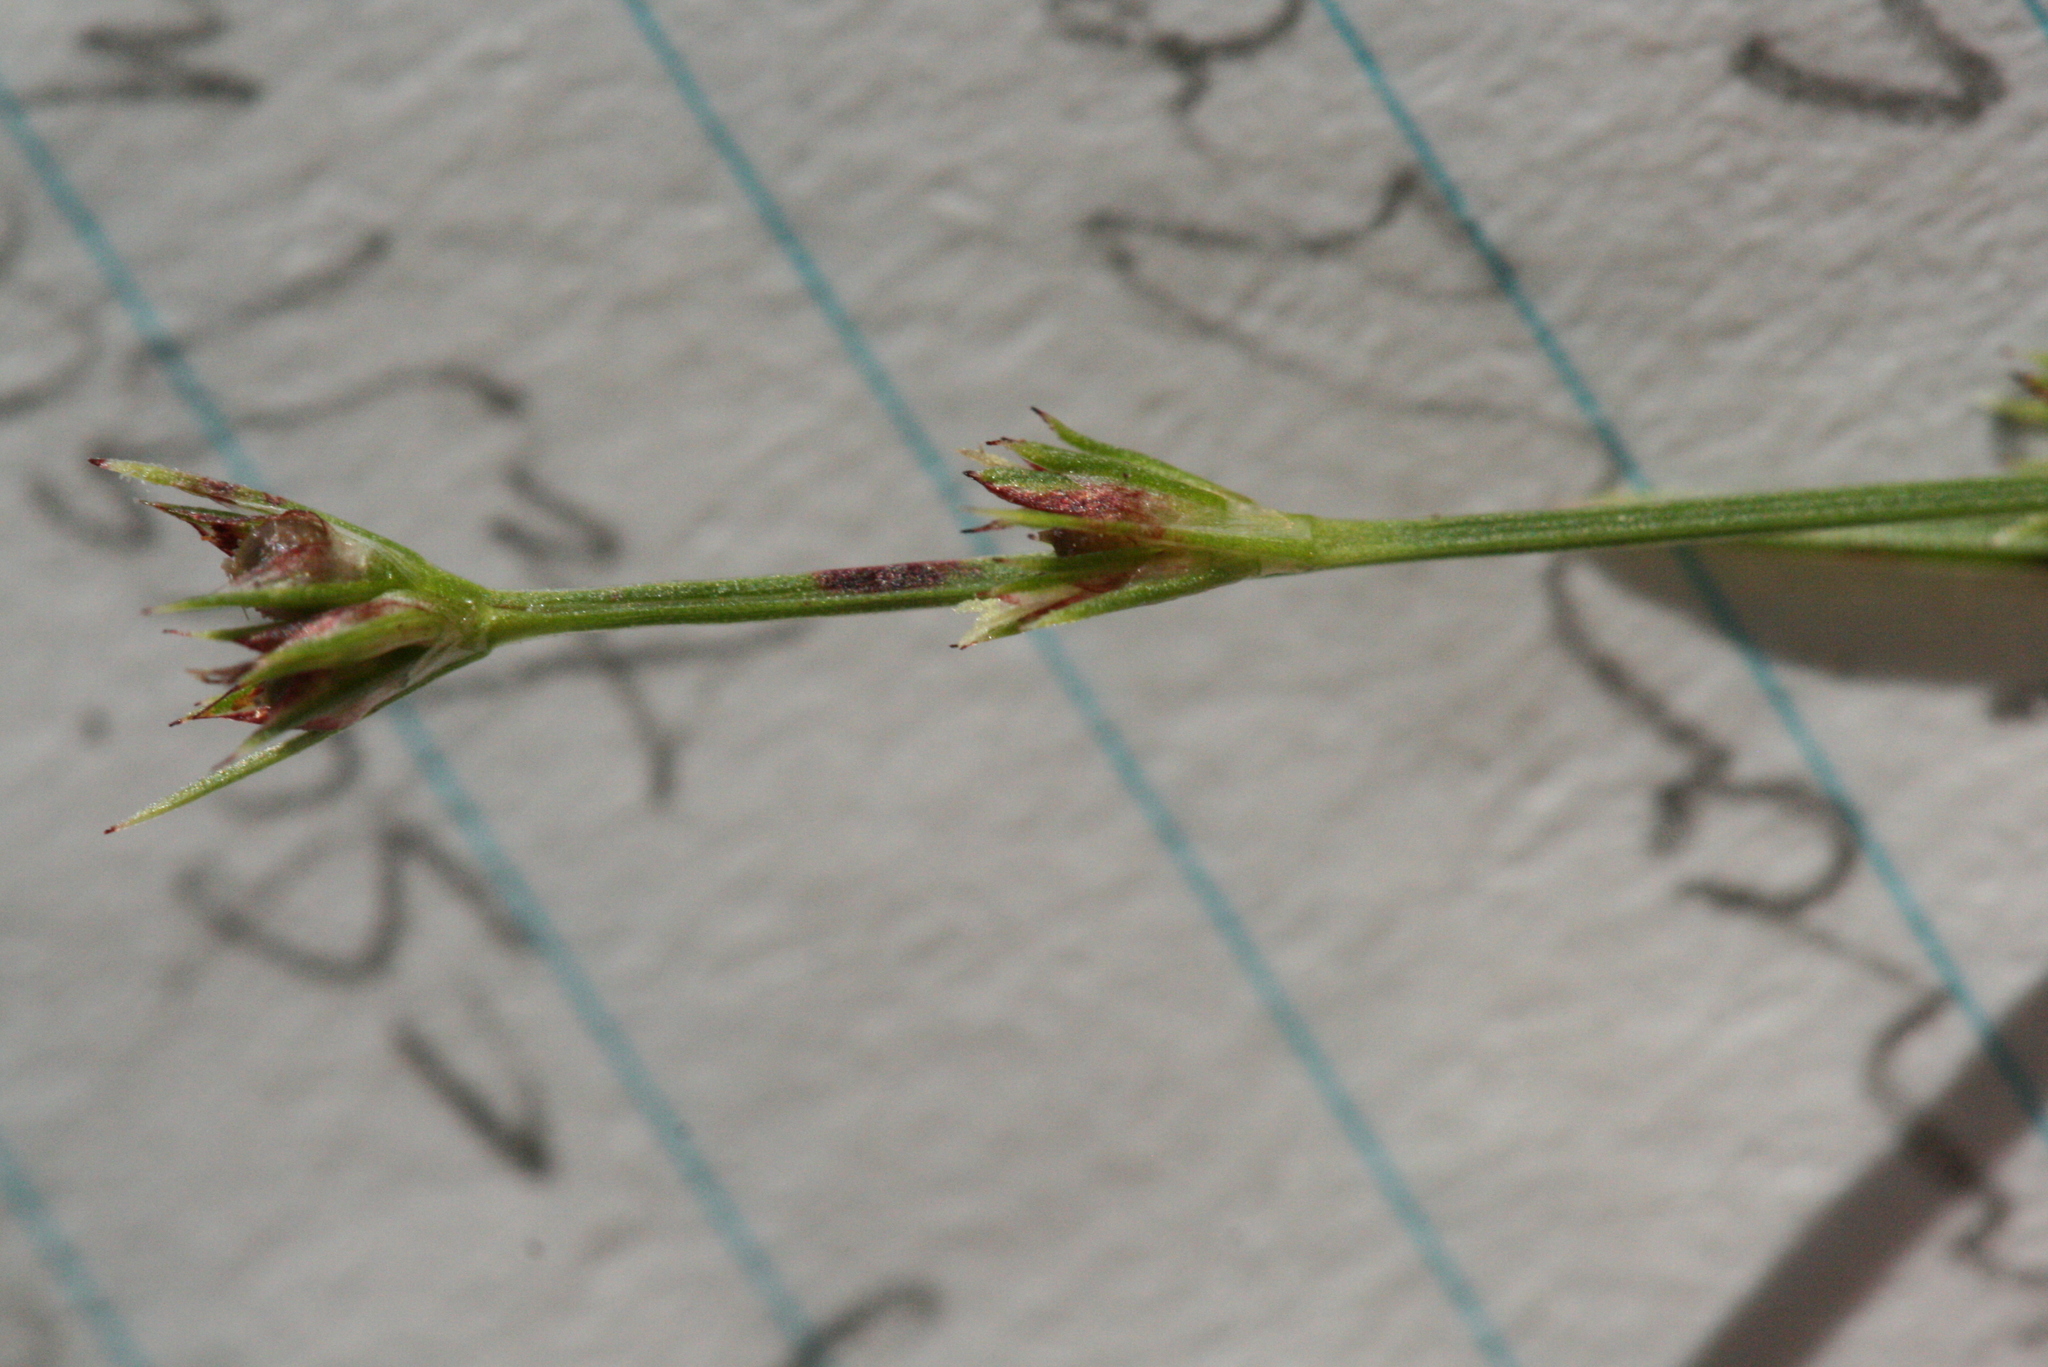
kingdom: Plantae
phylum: Tracheophyta
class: Liliopsida
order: Poales
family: Cyperaceae
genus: Scleria
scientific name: Scleria verticillata
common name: Low nutrush
